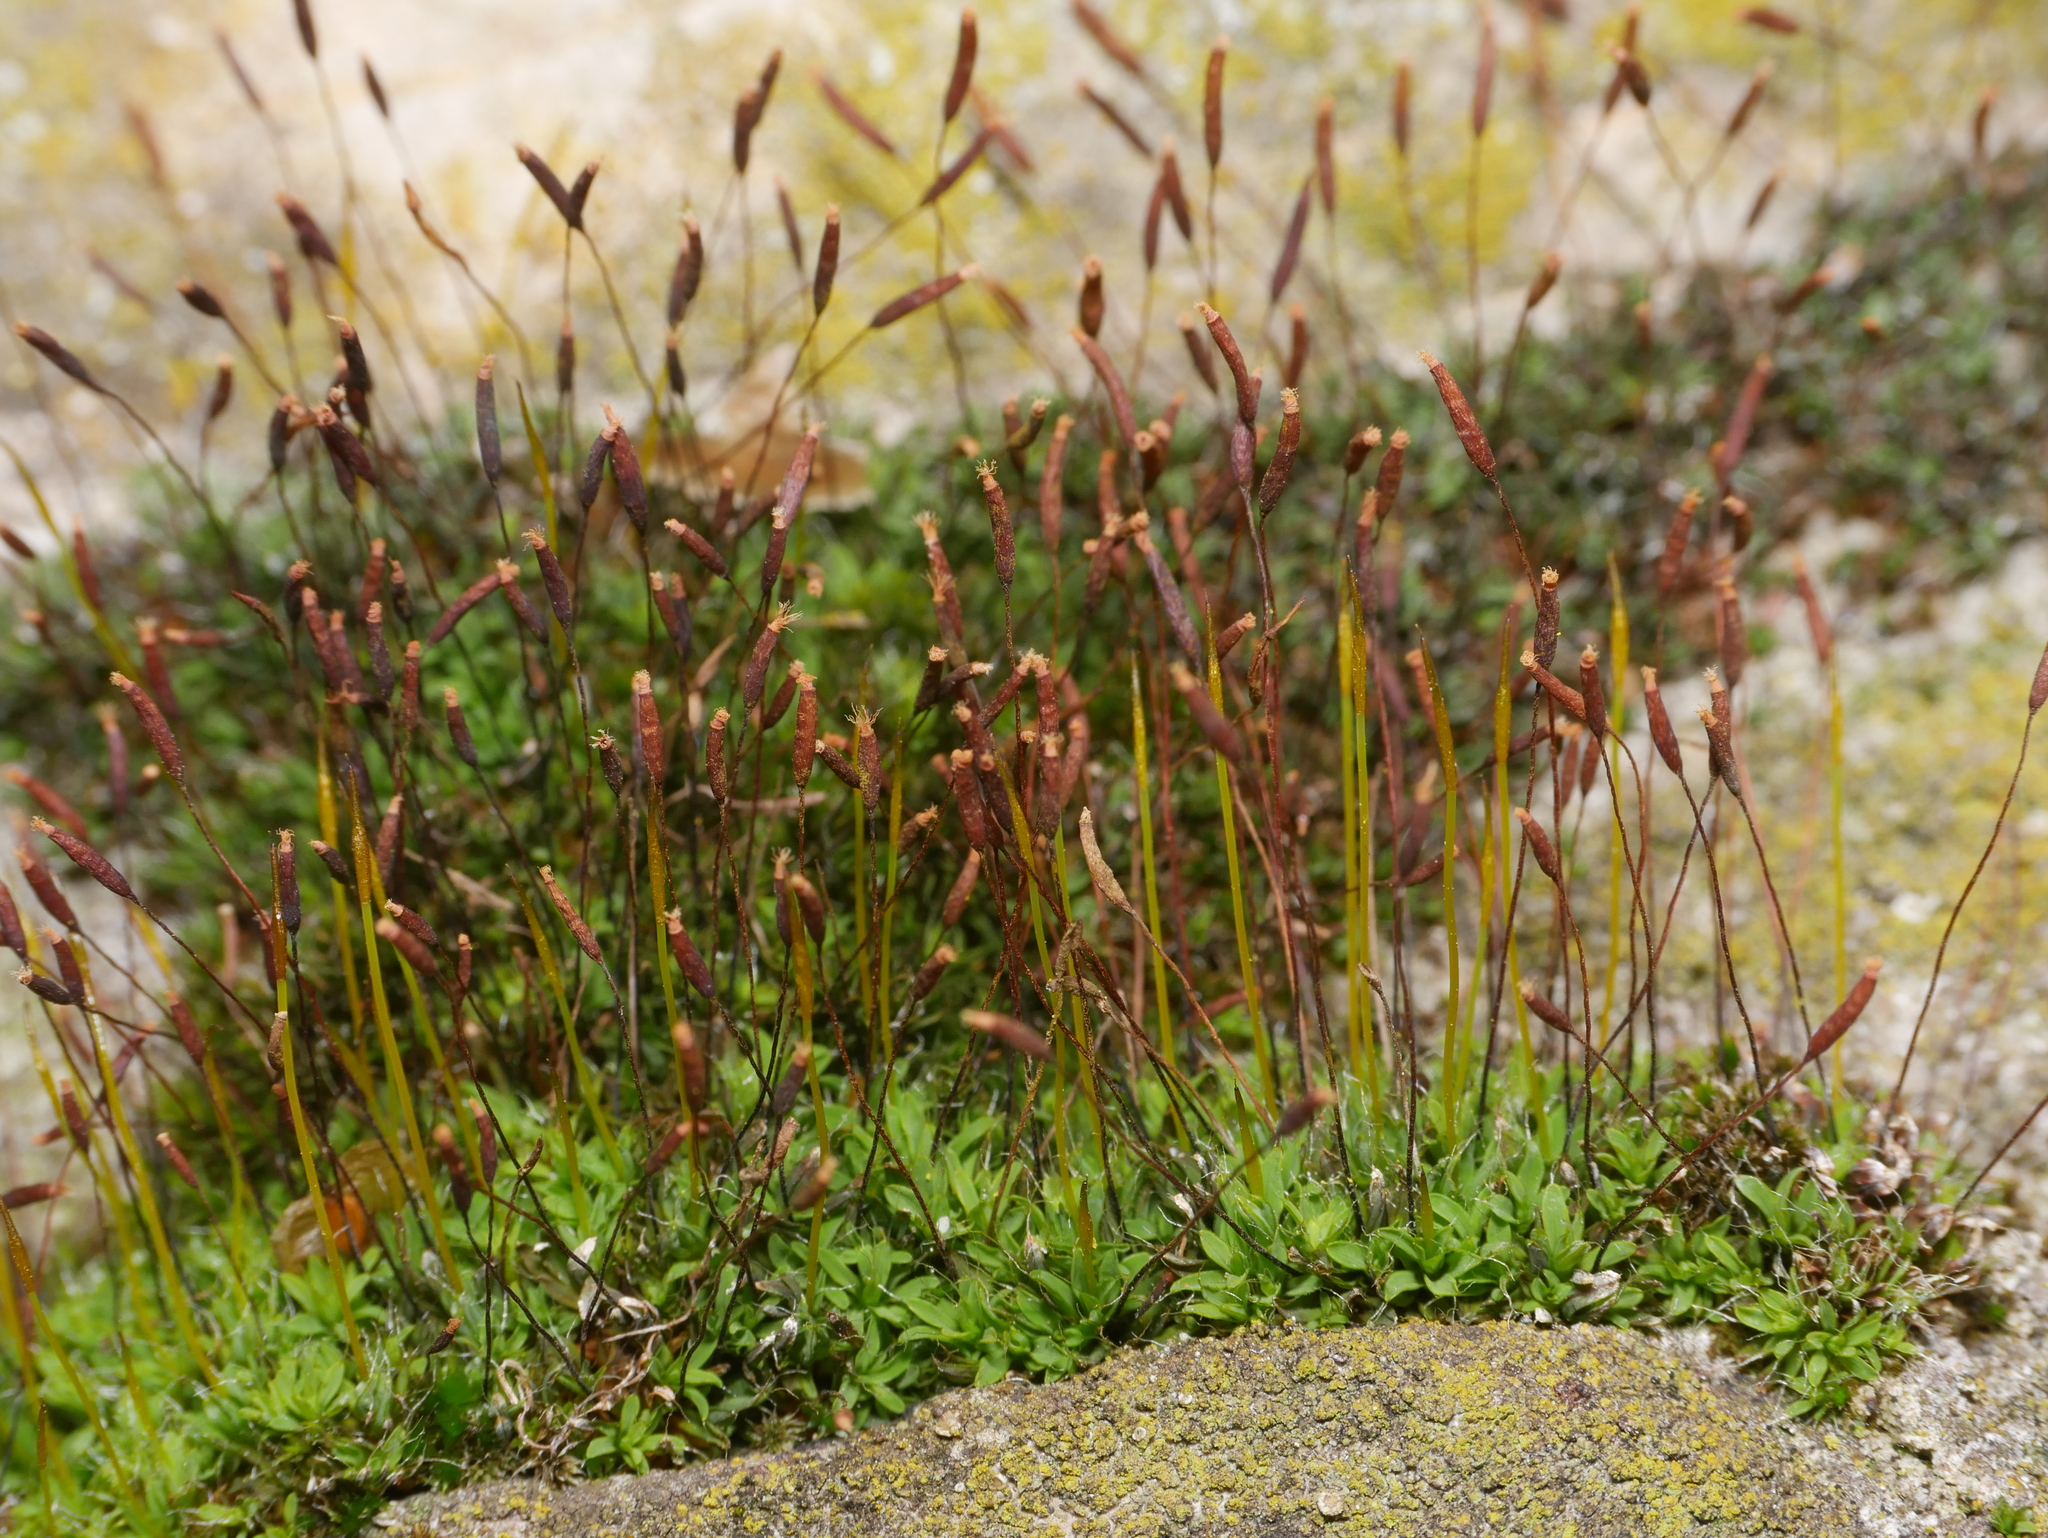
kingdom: Plantae
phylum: Bryophyta
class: Bryopsida
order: Pottiales
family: Pottiaceae
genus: Tortula
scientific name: Tortula muralis
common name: Wall screw-moss
